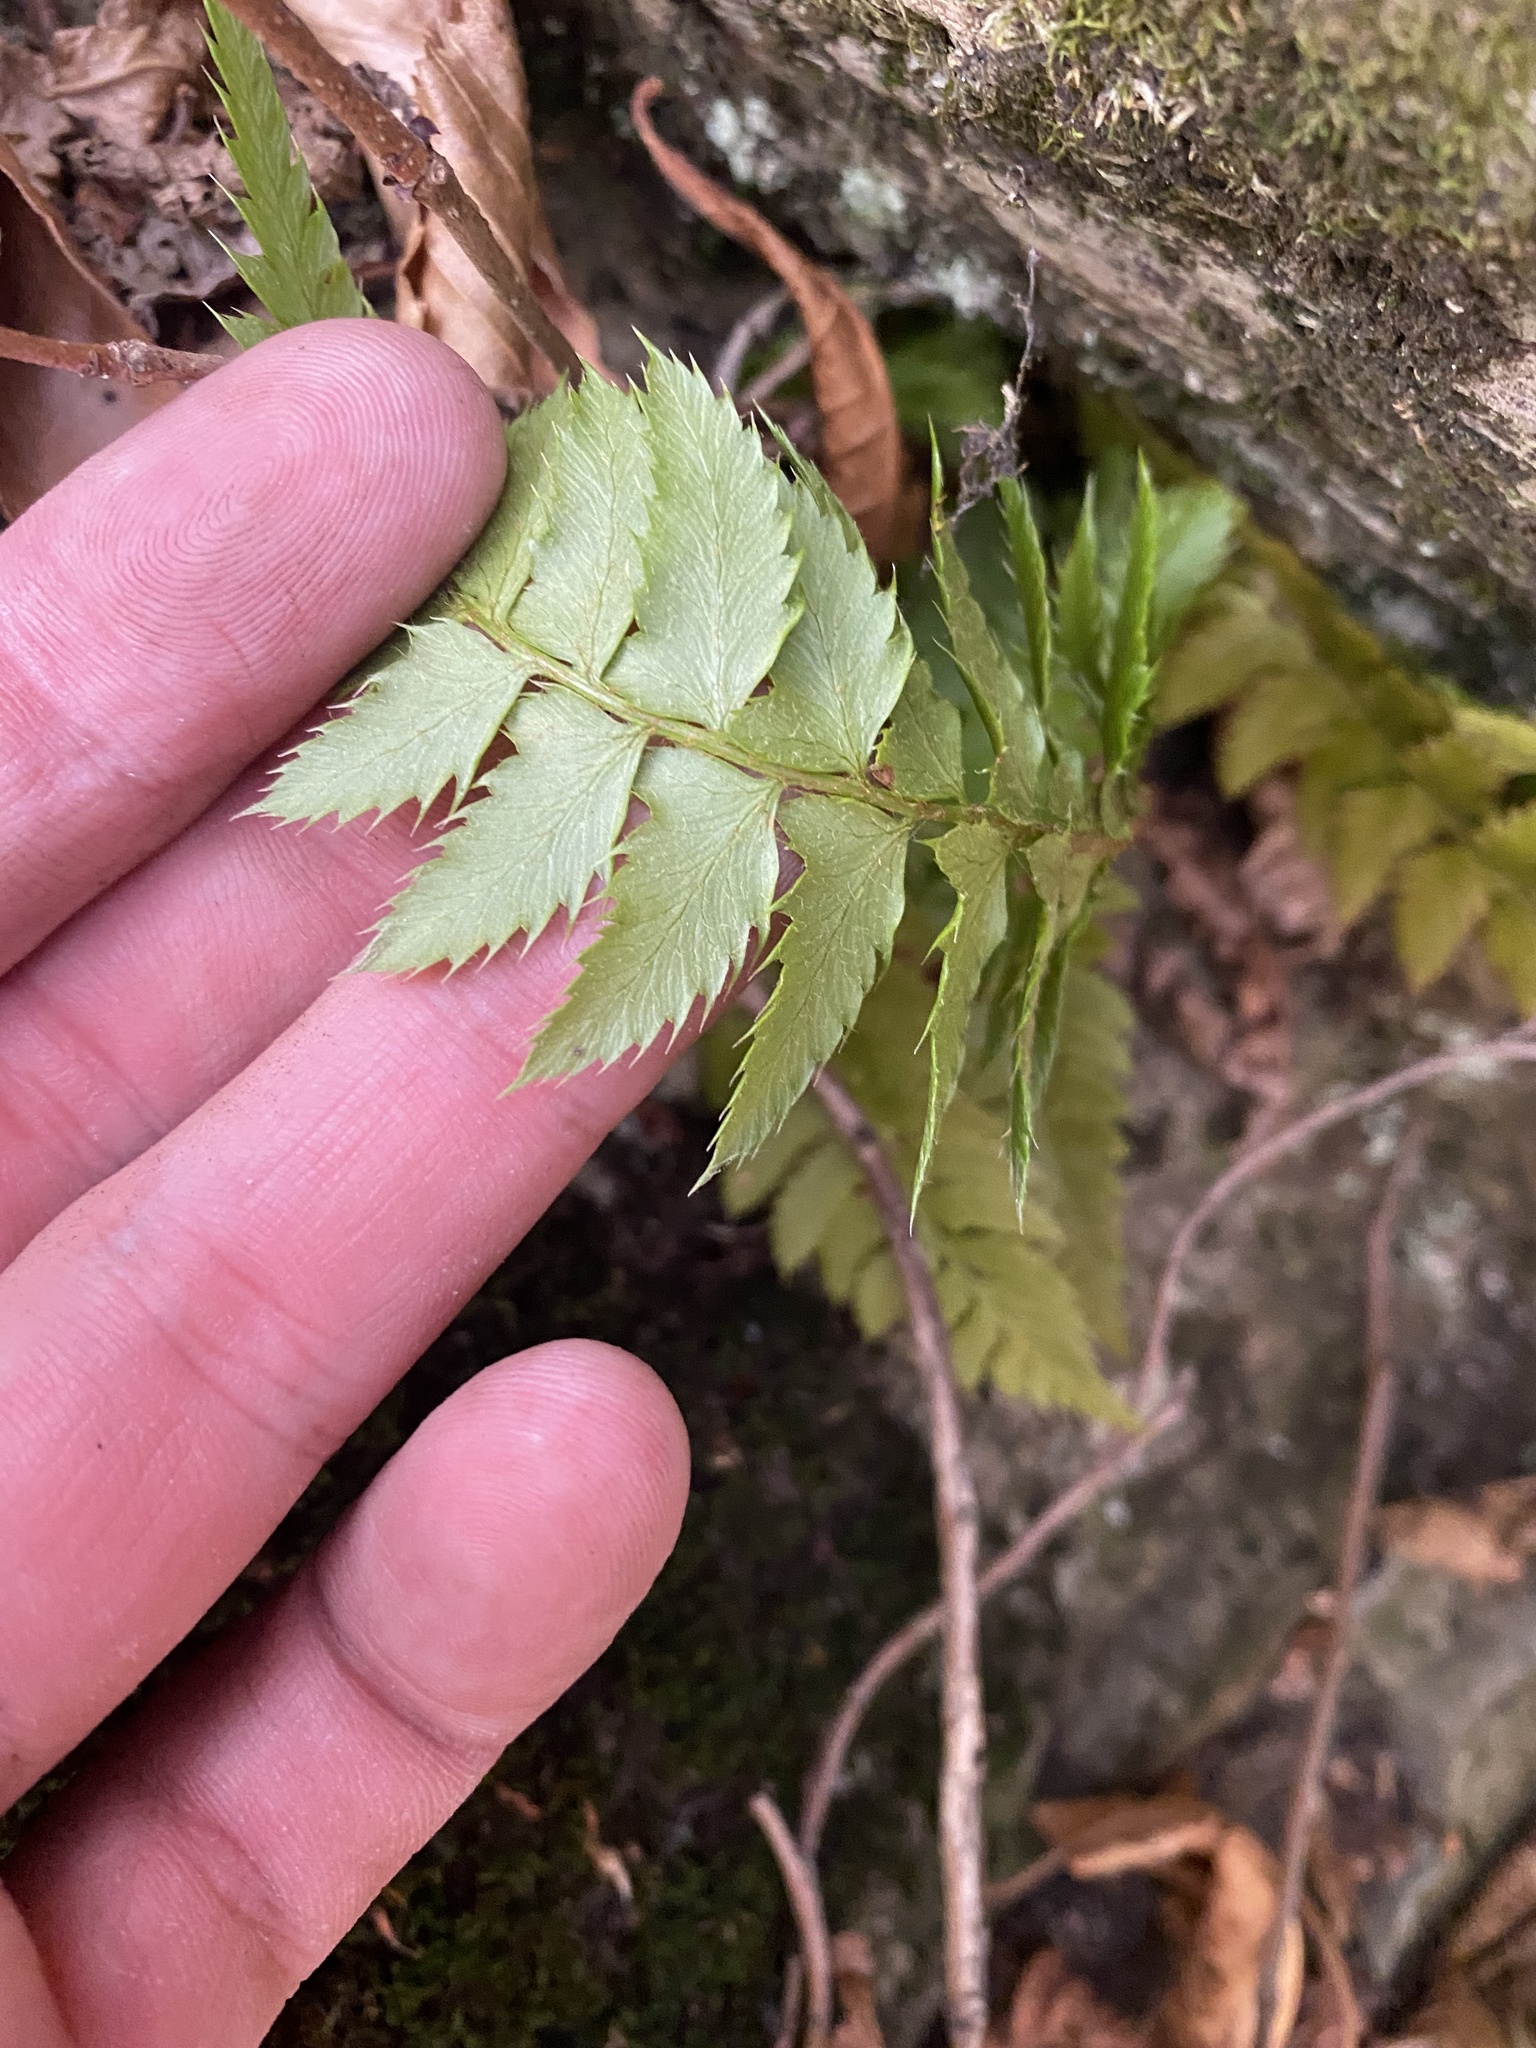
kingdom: Plantae
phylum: Tracheophyta
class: Polypodiopsida
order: Polypodiales
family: Dryopteridaceae
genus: Polystichum
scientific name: Polystichum aculeatum
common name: Hard shield-fern
